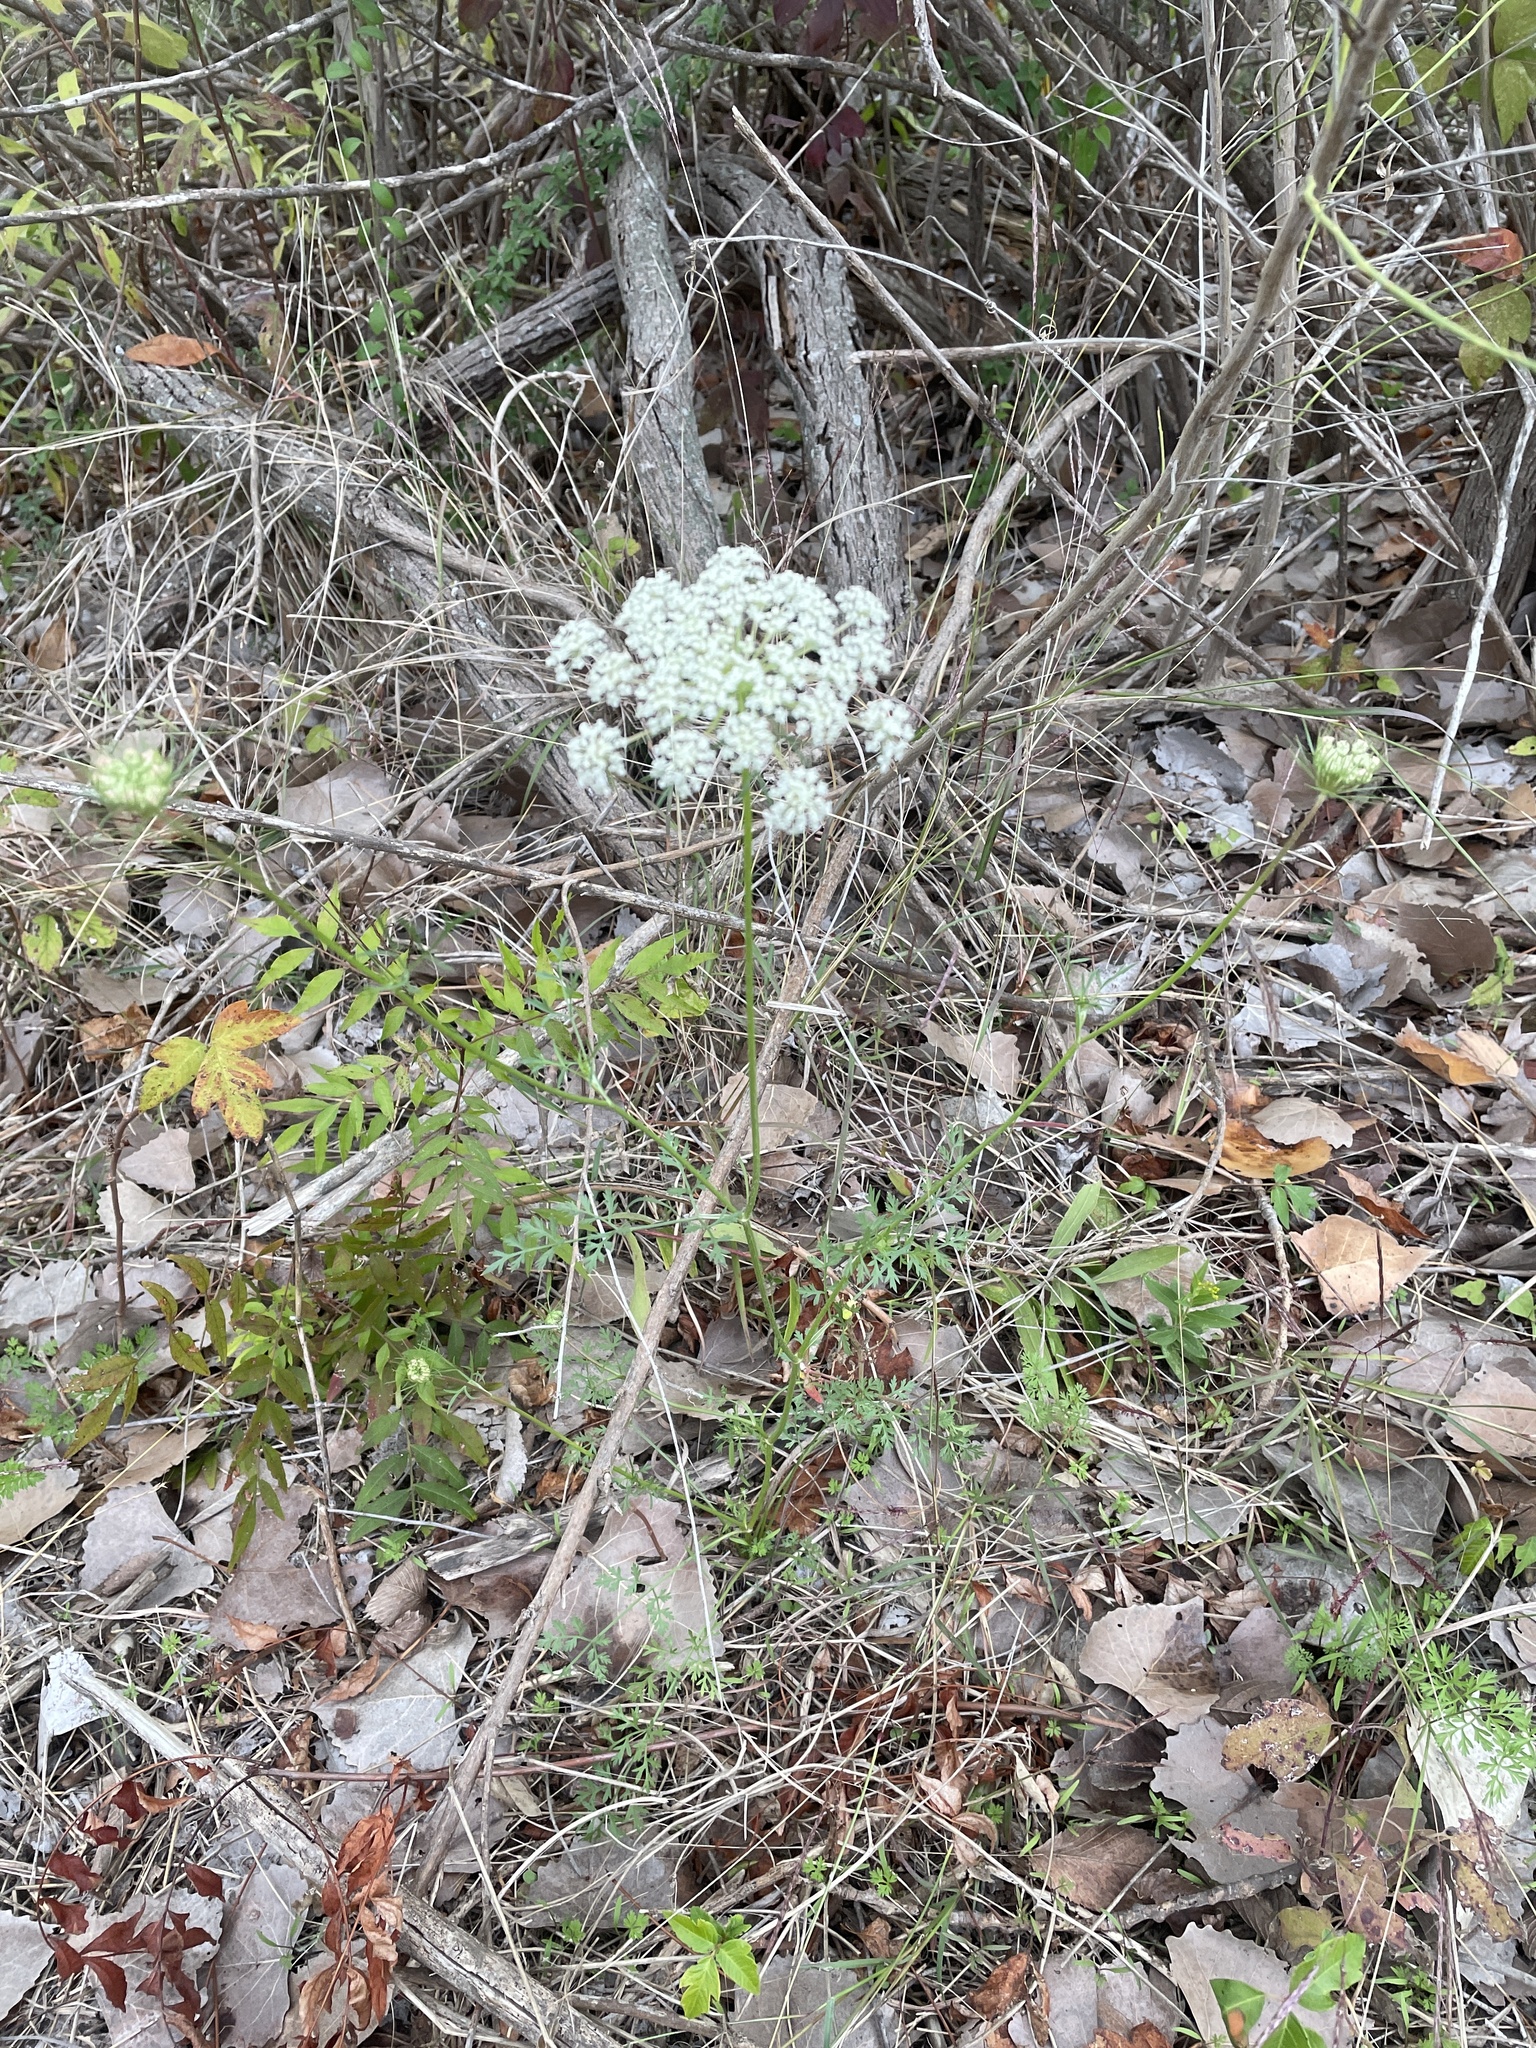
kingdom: Plantae
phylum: Tracheophyta
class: Magnoliopsida
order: Apiales
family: Apiaceae
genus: Daucus
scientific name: Daucus carota
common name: Wild carrot
